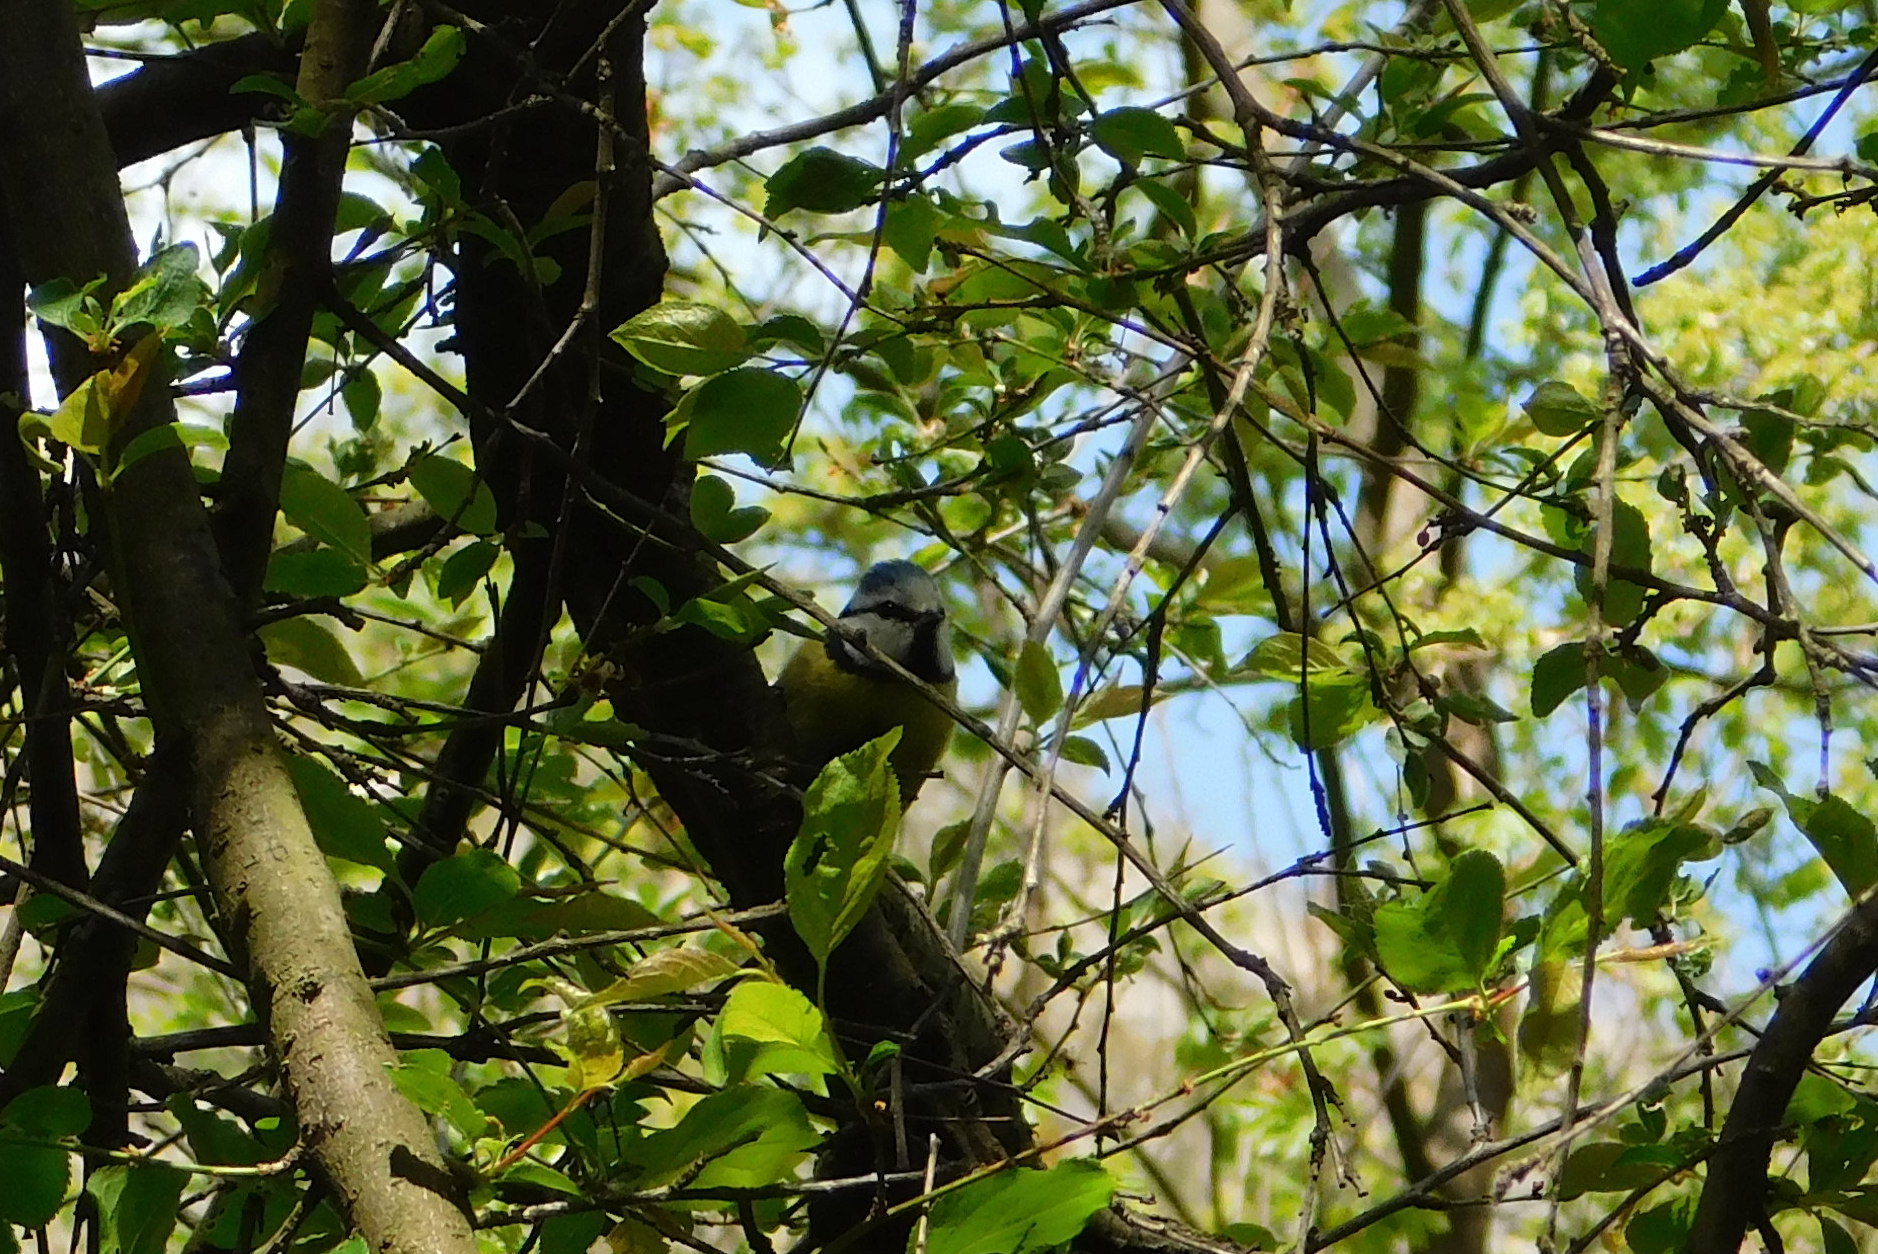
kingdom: Animalia
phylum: Chordata
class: Aves
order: Passeriformes
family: Paridae
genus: Cyanistes
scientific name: Cyanistes caeruleus
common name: Eurasian blue tit
